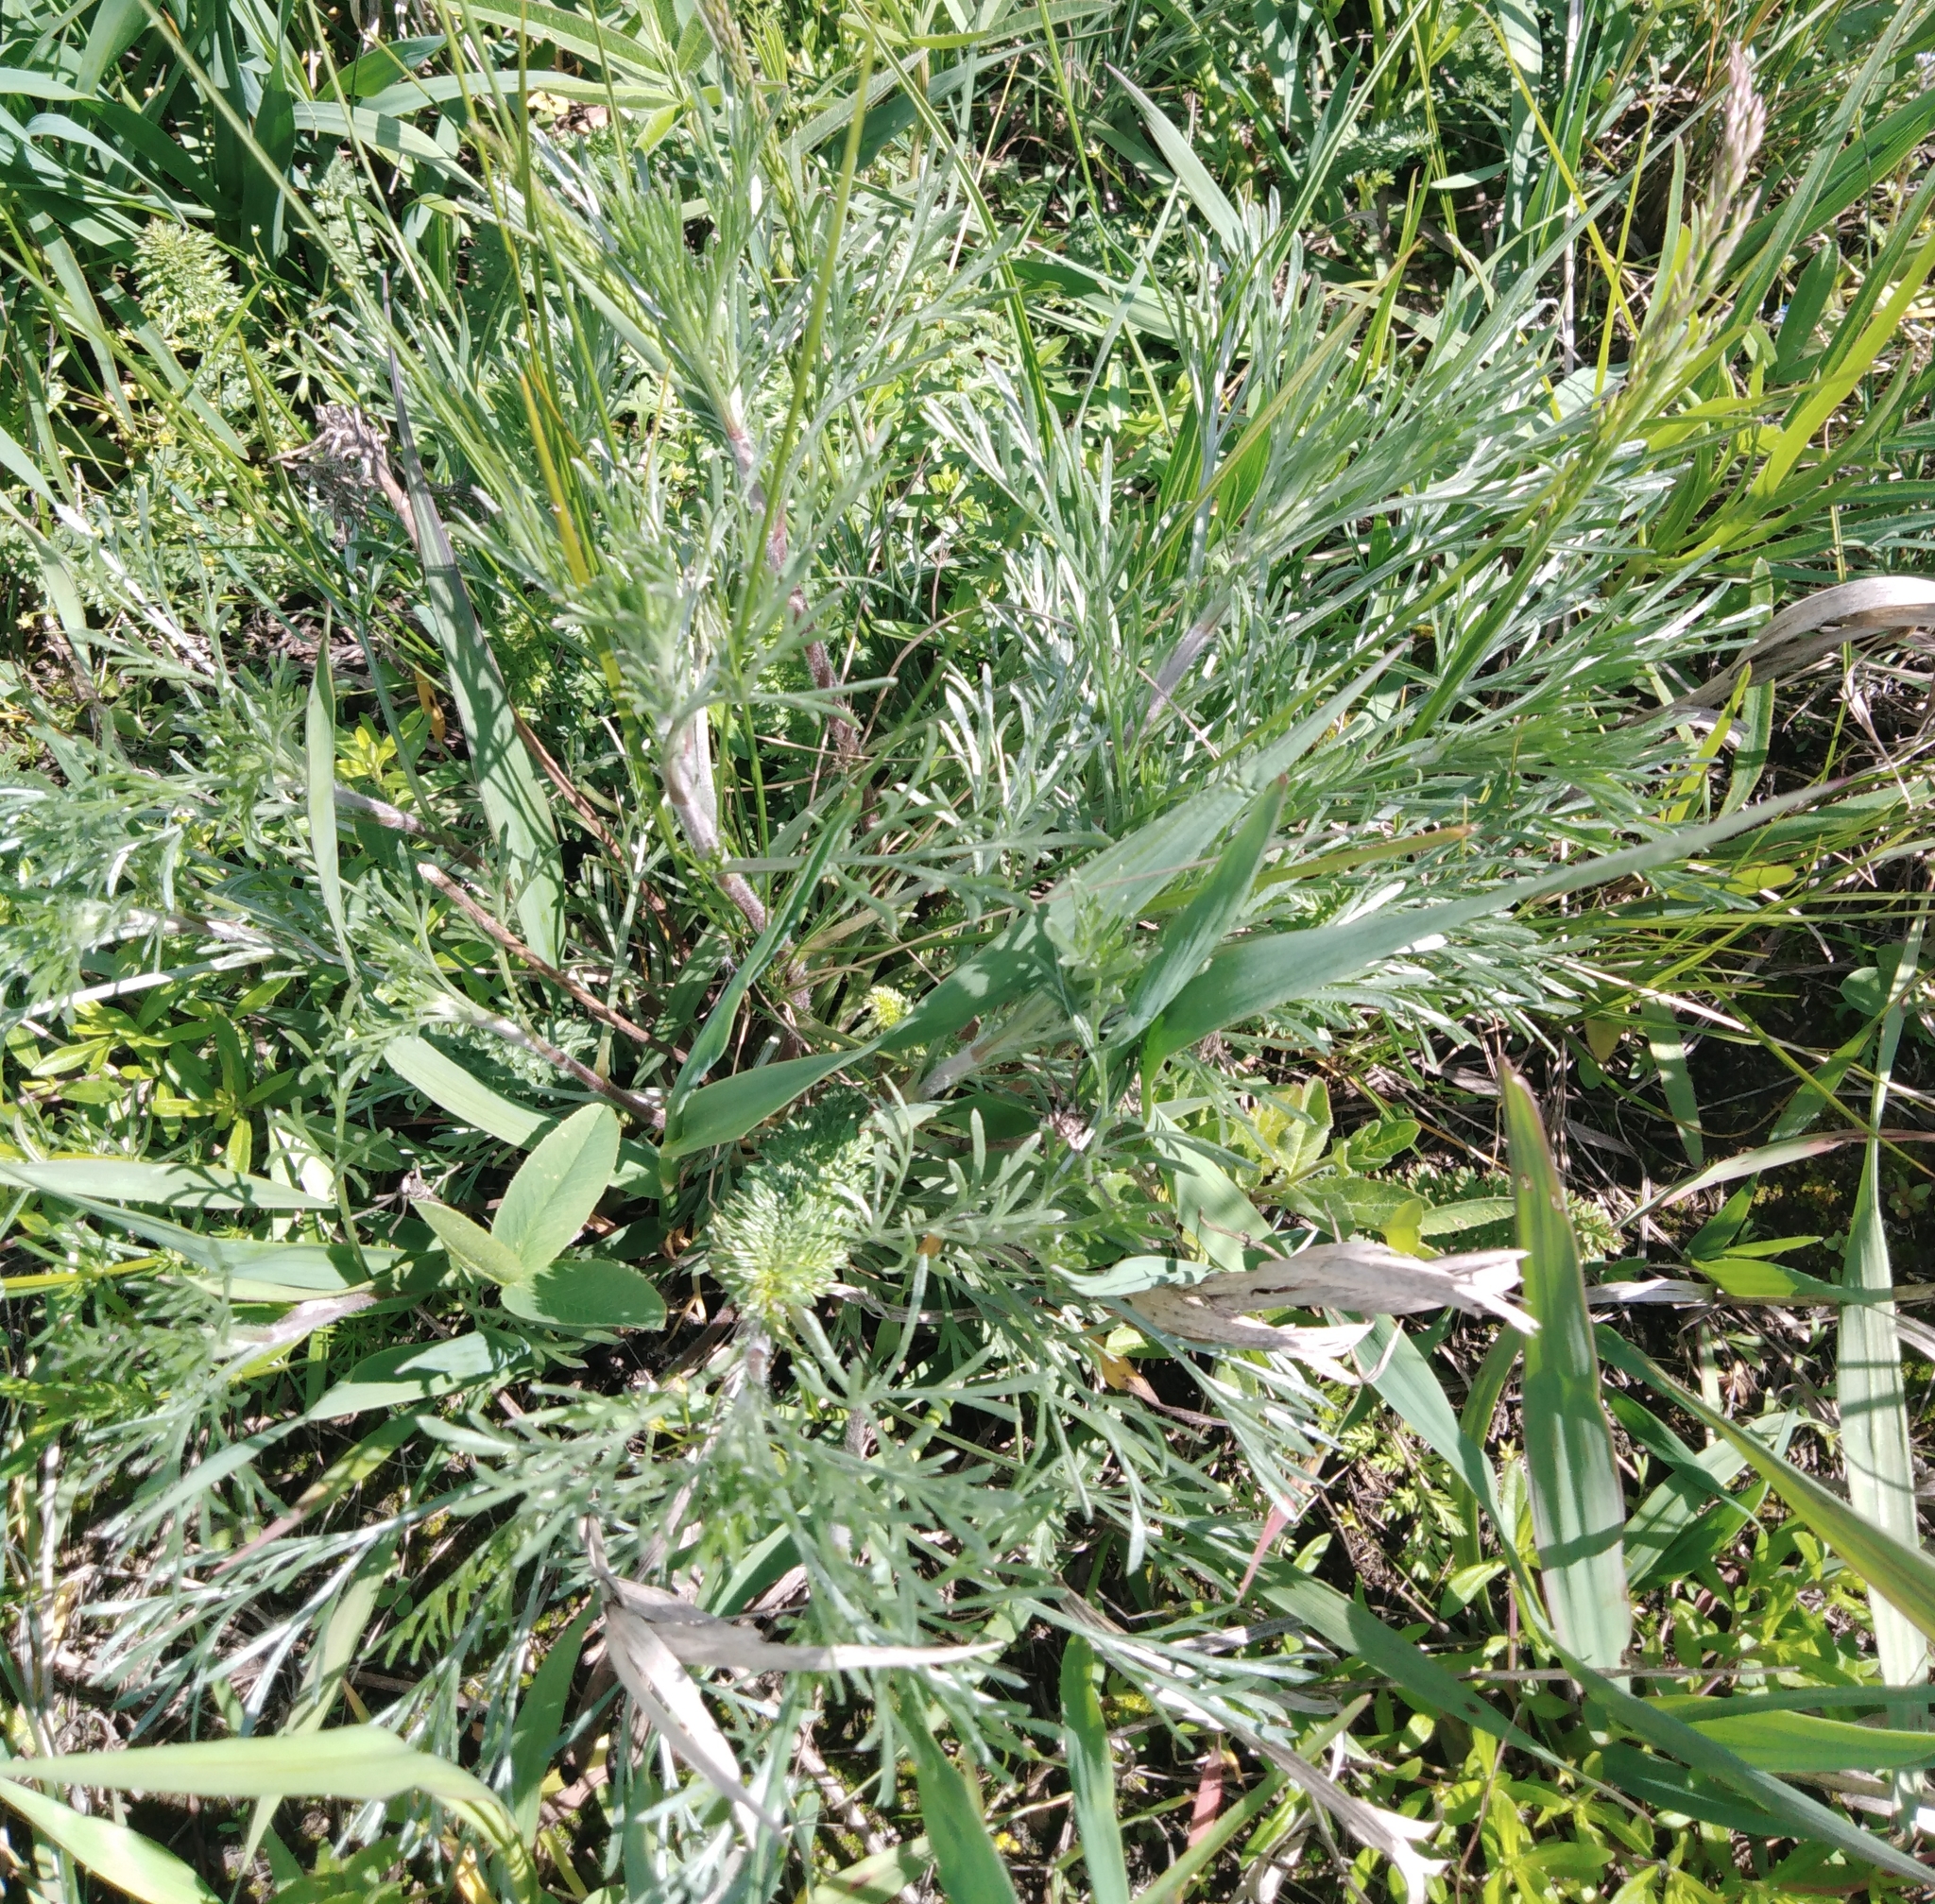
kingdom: Plantae
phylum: Tracheophyta
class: Magnoliopsida
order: Asterales
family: Asteraceae
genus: Artemisia
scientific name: Artemisia campestris
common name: Field wormwood
